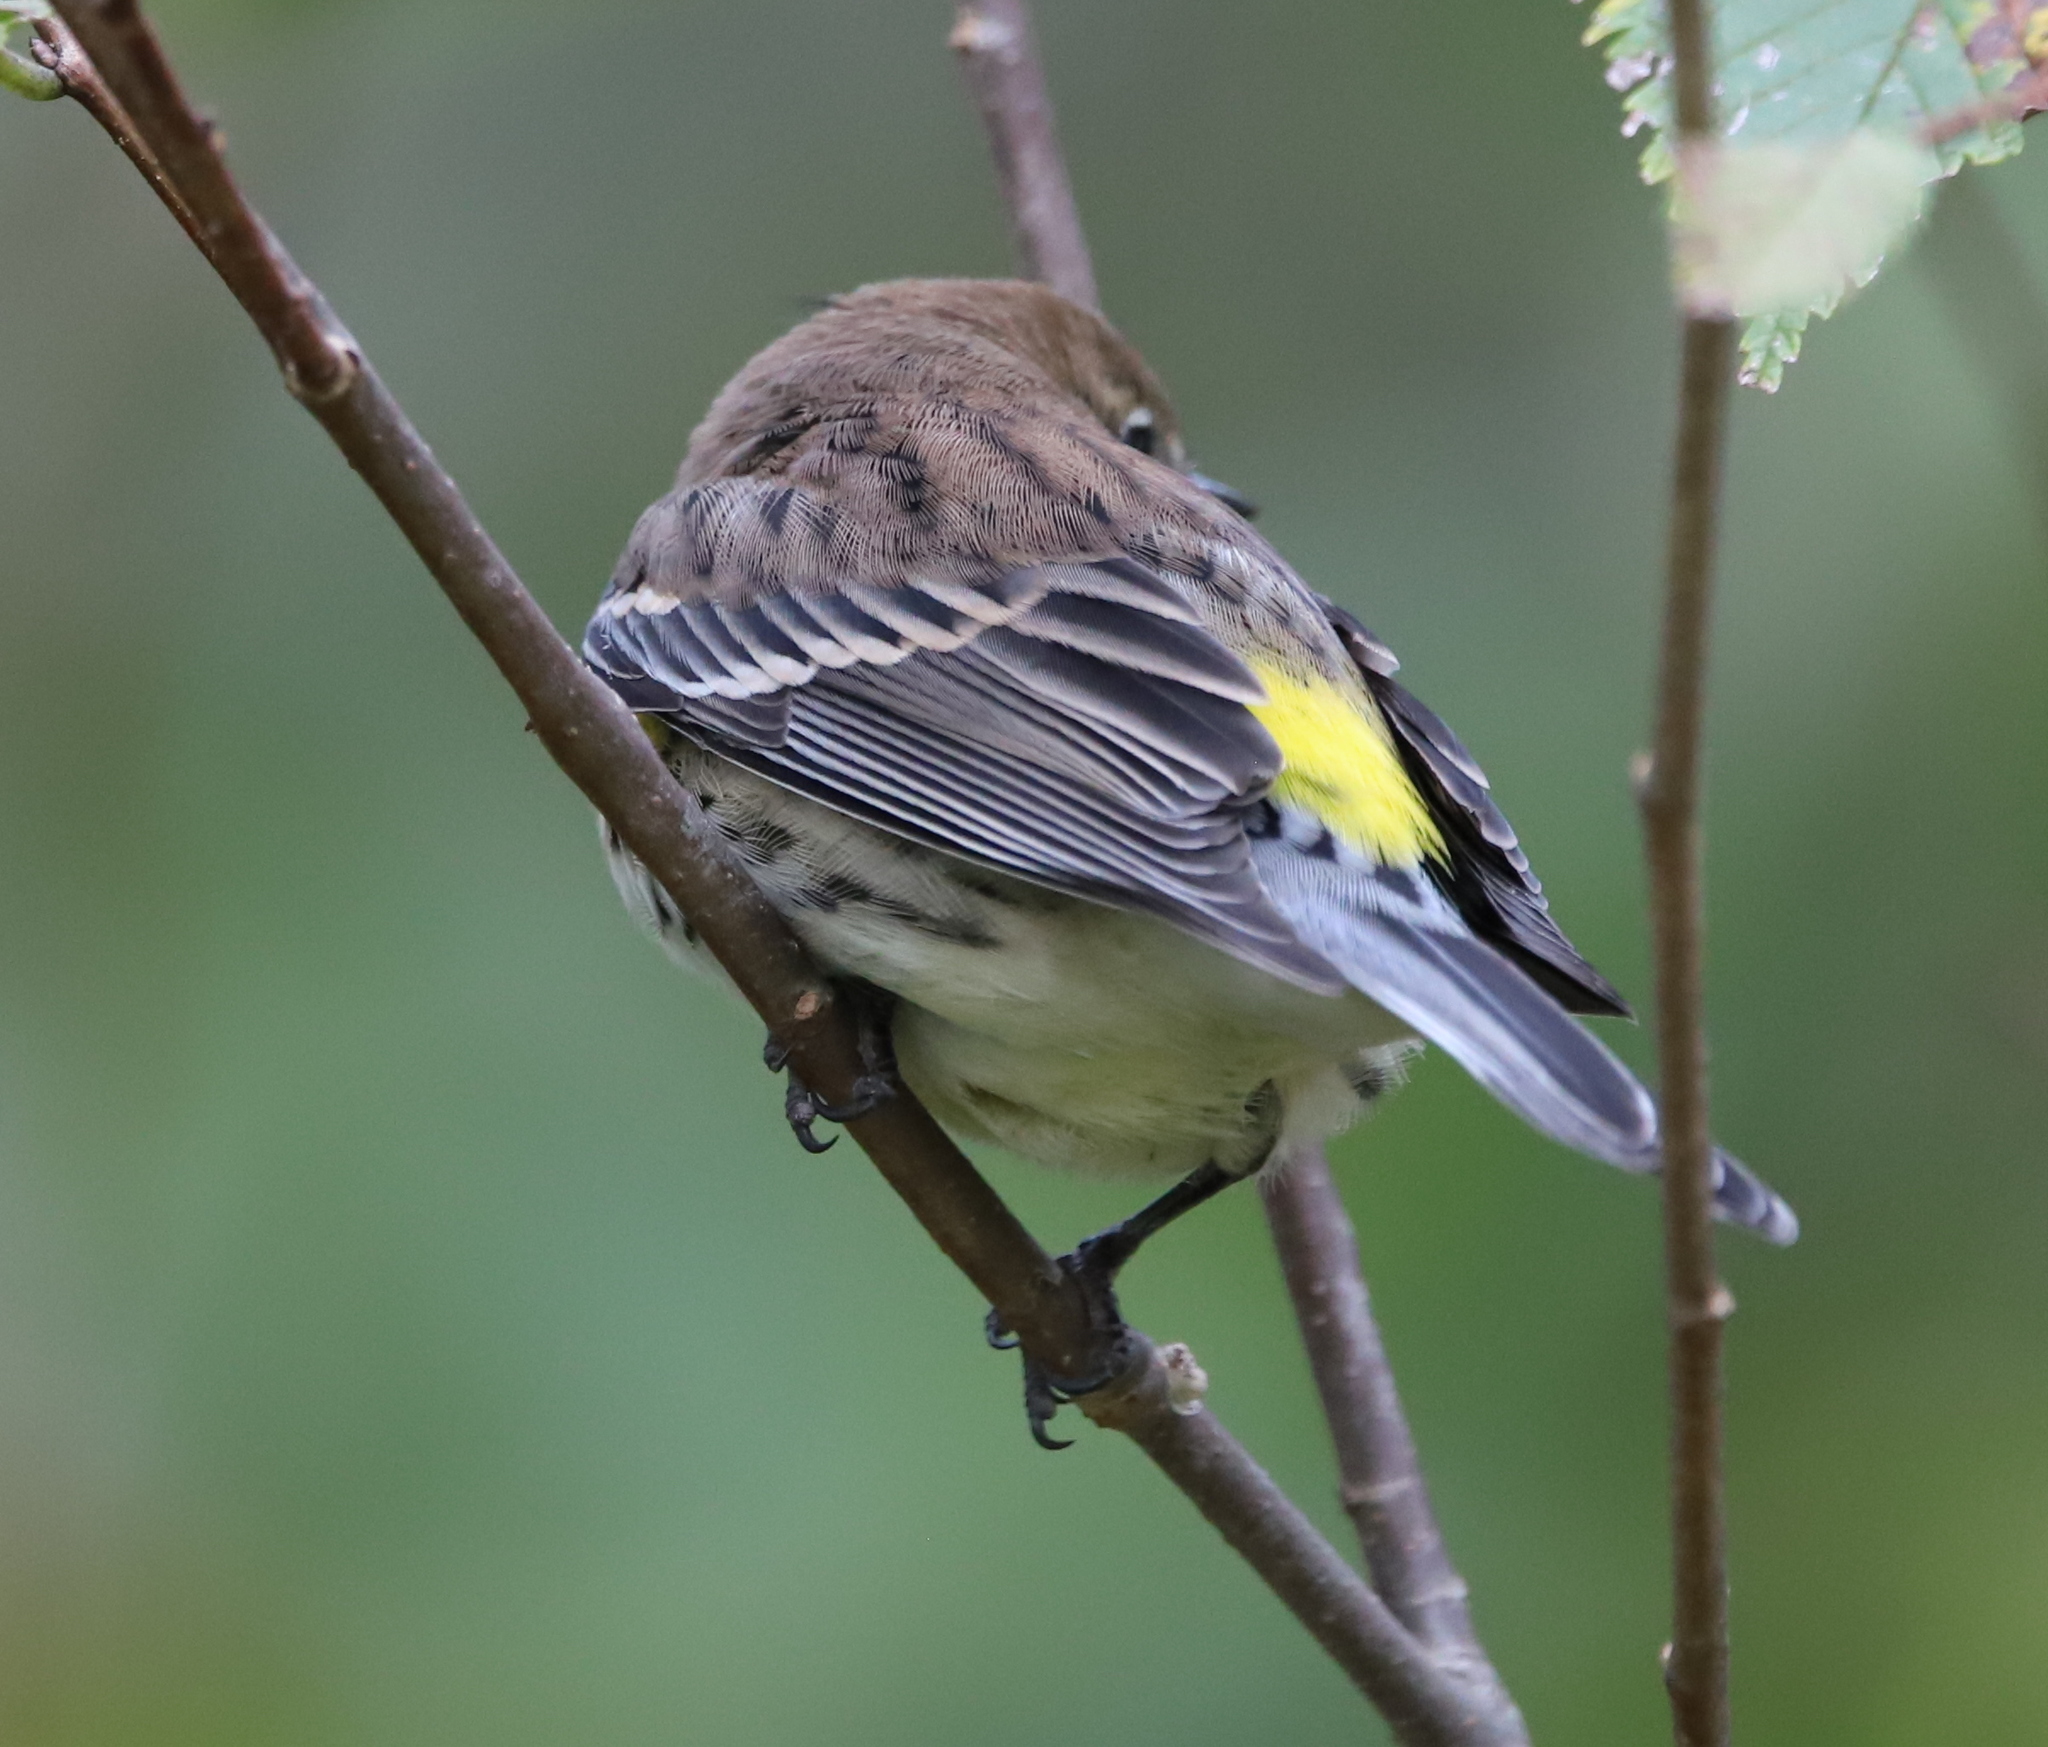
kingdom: Animalia
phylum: Chordata
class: Aves
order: Passeriformes
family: Parulidae
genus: Setophaga
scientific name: Setophaga coronata
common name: Myrtle warbler
